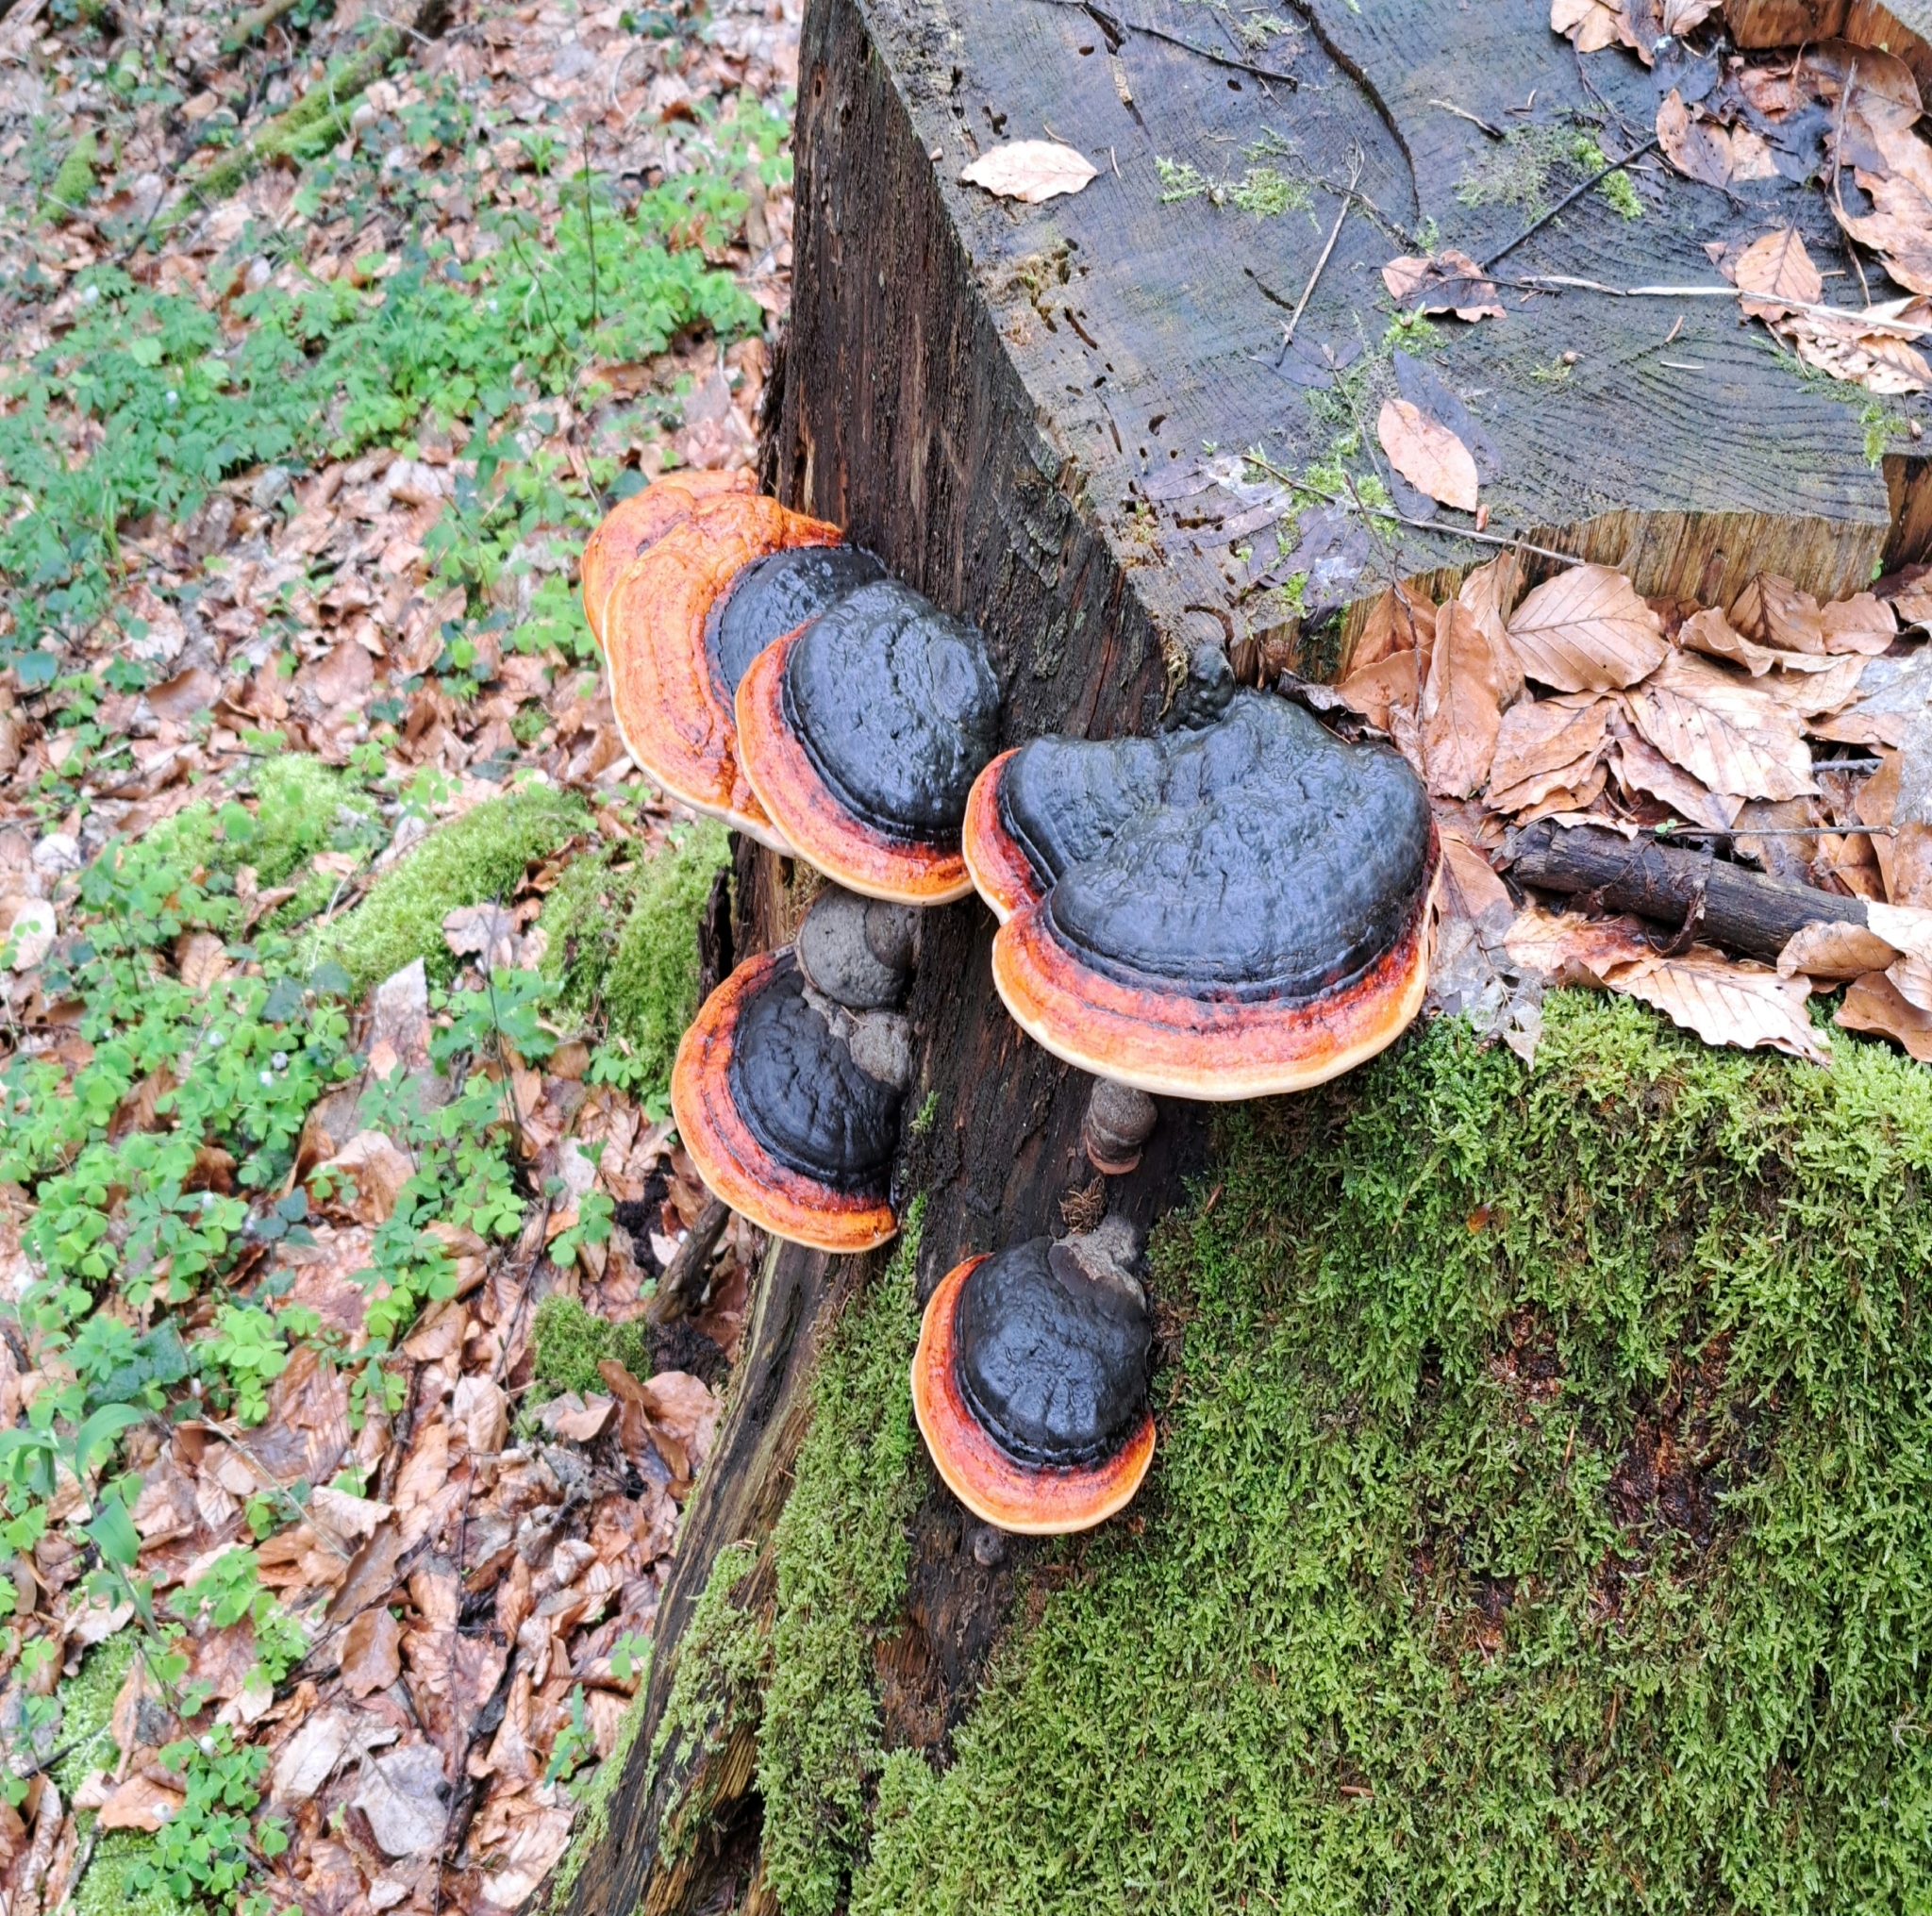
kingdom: Fungi
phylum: Basidiomycota
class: Agaricomycetes
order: Polyporales
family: Fomitopsidaceae
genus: Fomitopsis
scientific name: Fomitopsis pinicola
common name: Red-belted bracket
